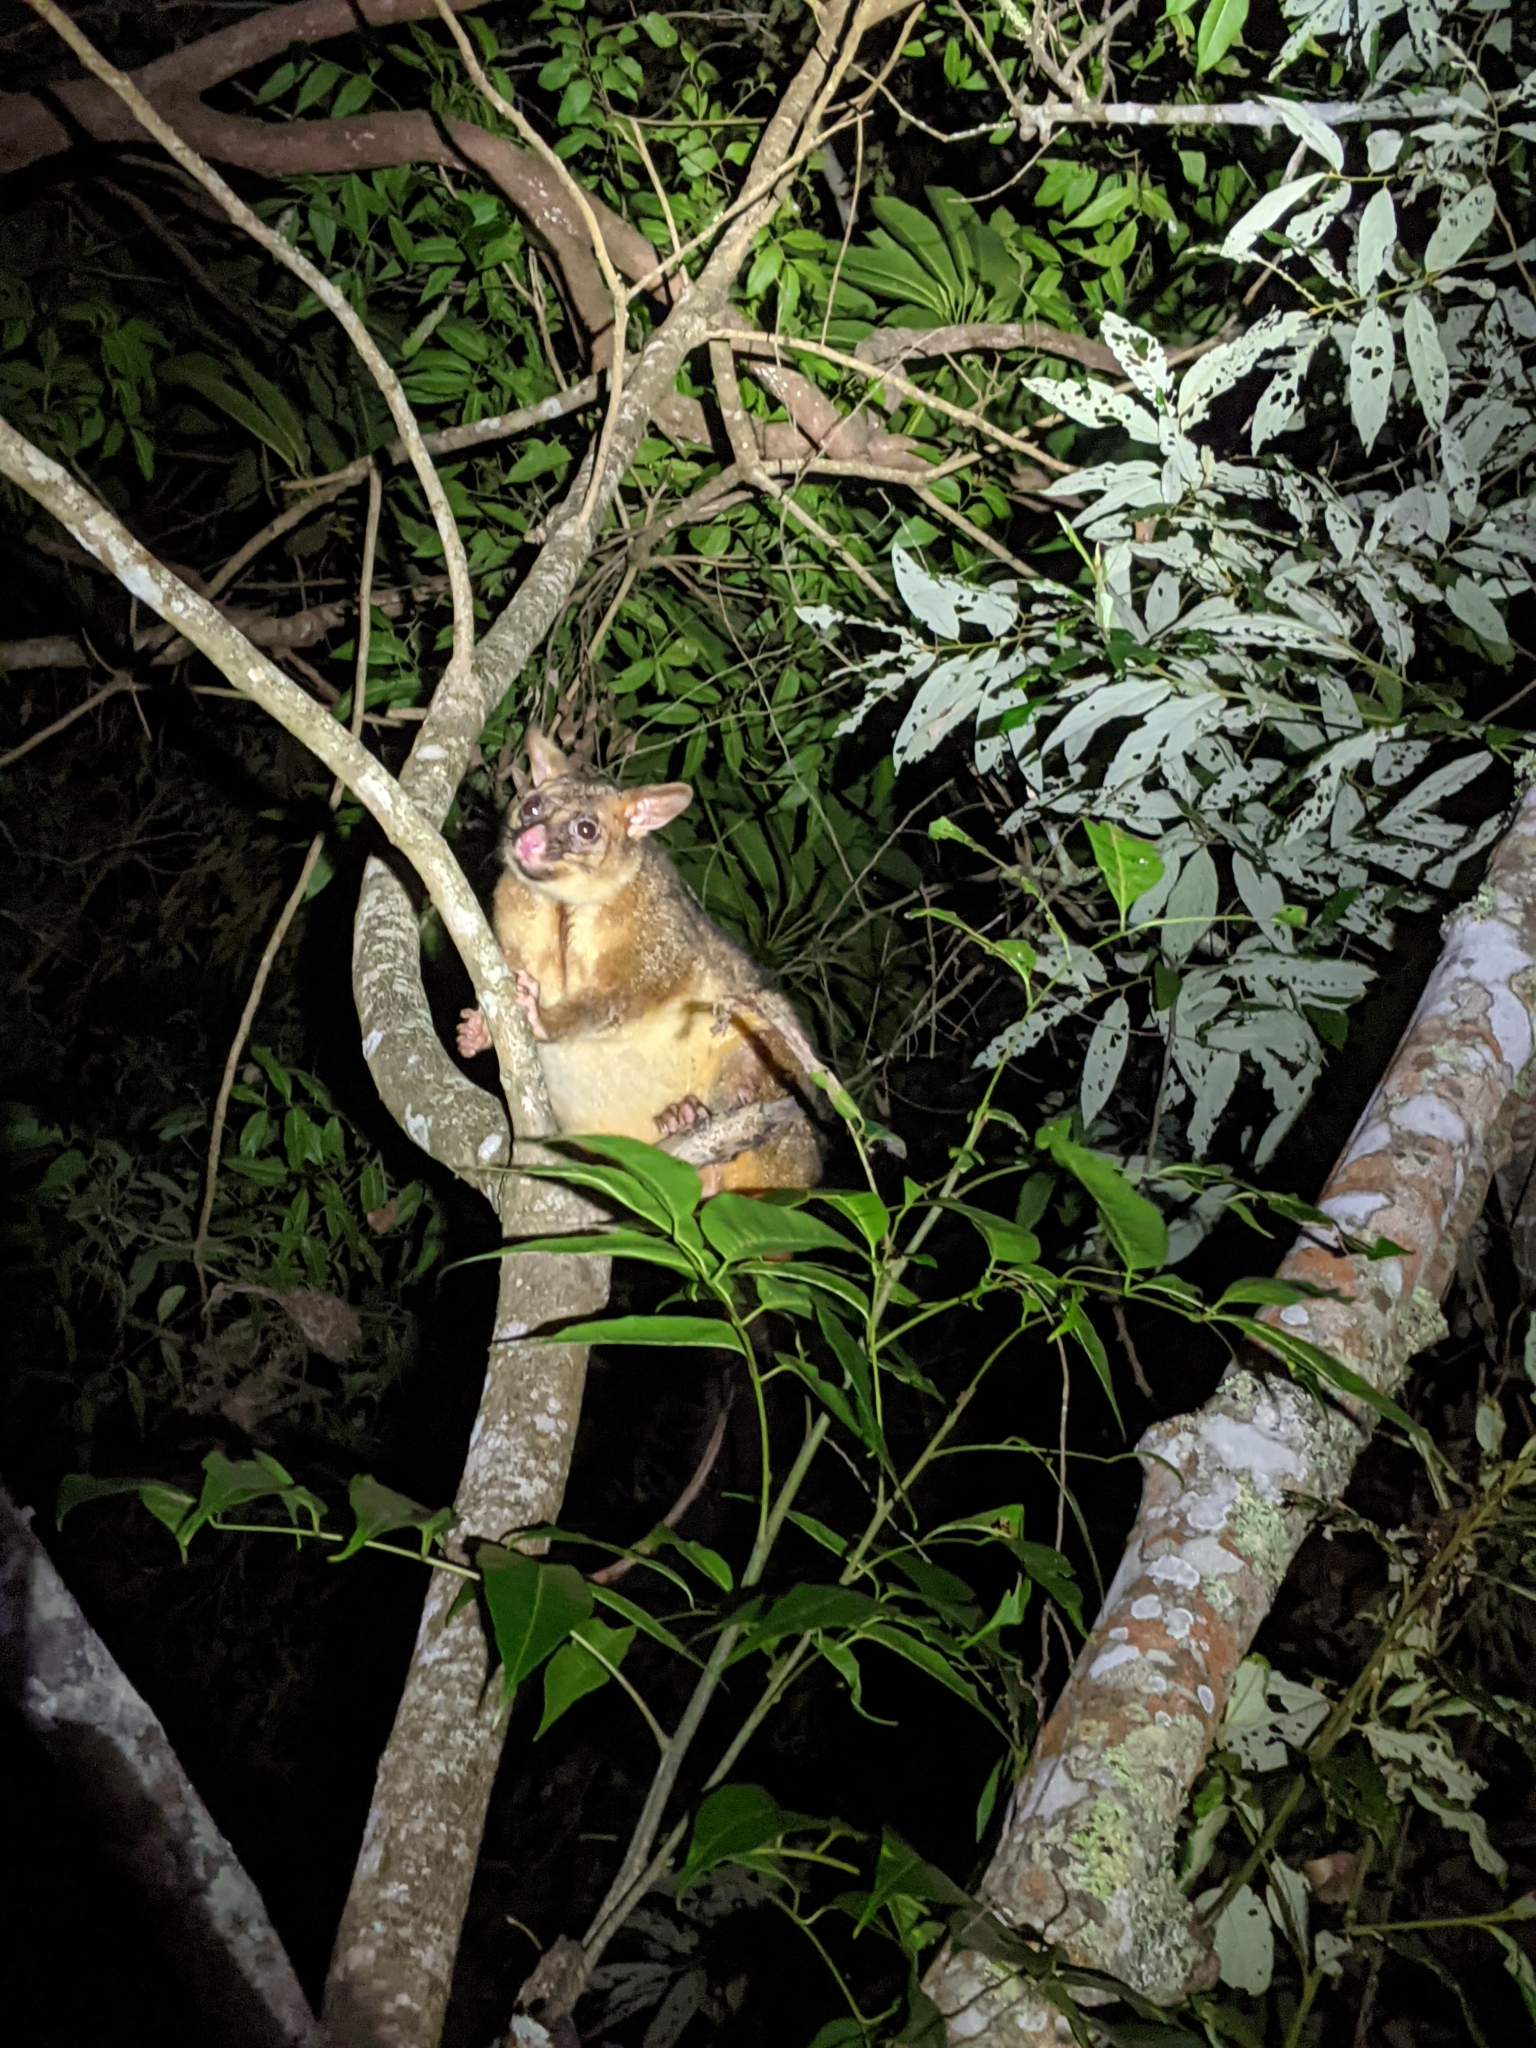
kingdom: Animalia
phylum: Chordata
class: Mammalia
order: Diprotodontia
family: Phalangeridae
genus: Trichosurus
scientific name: Trichosurus vulpecula
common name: Common brushtail
